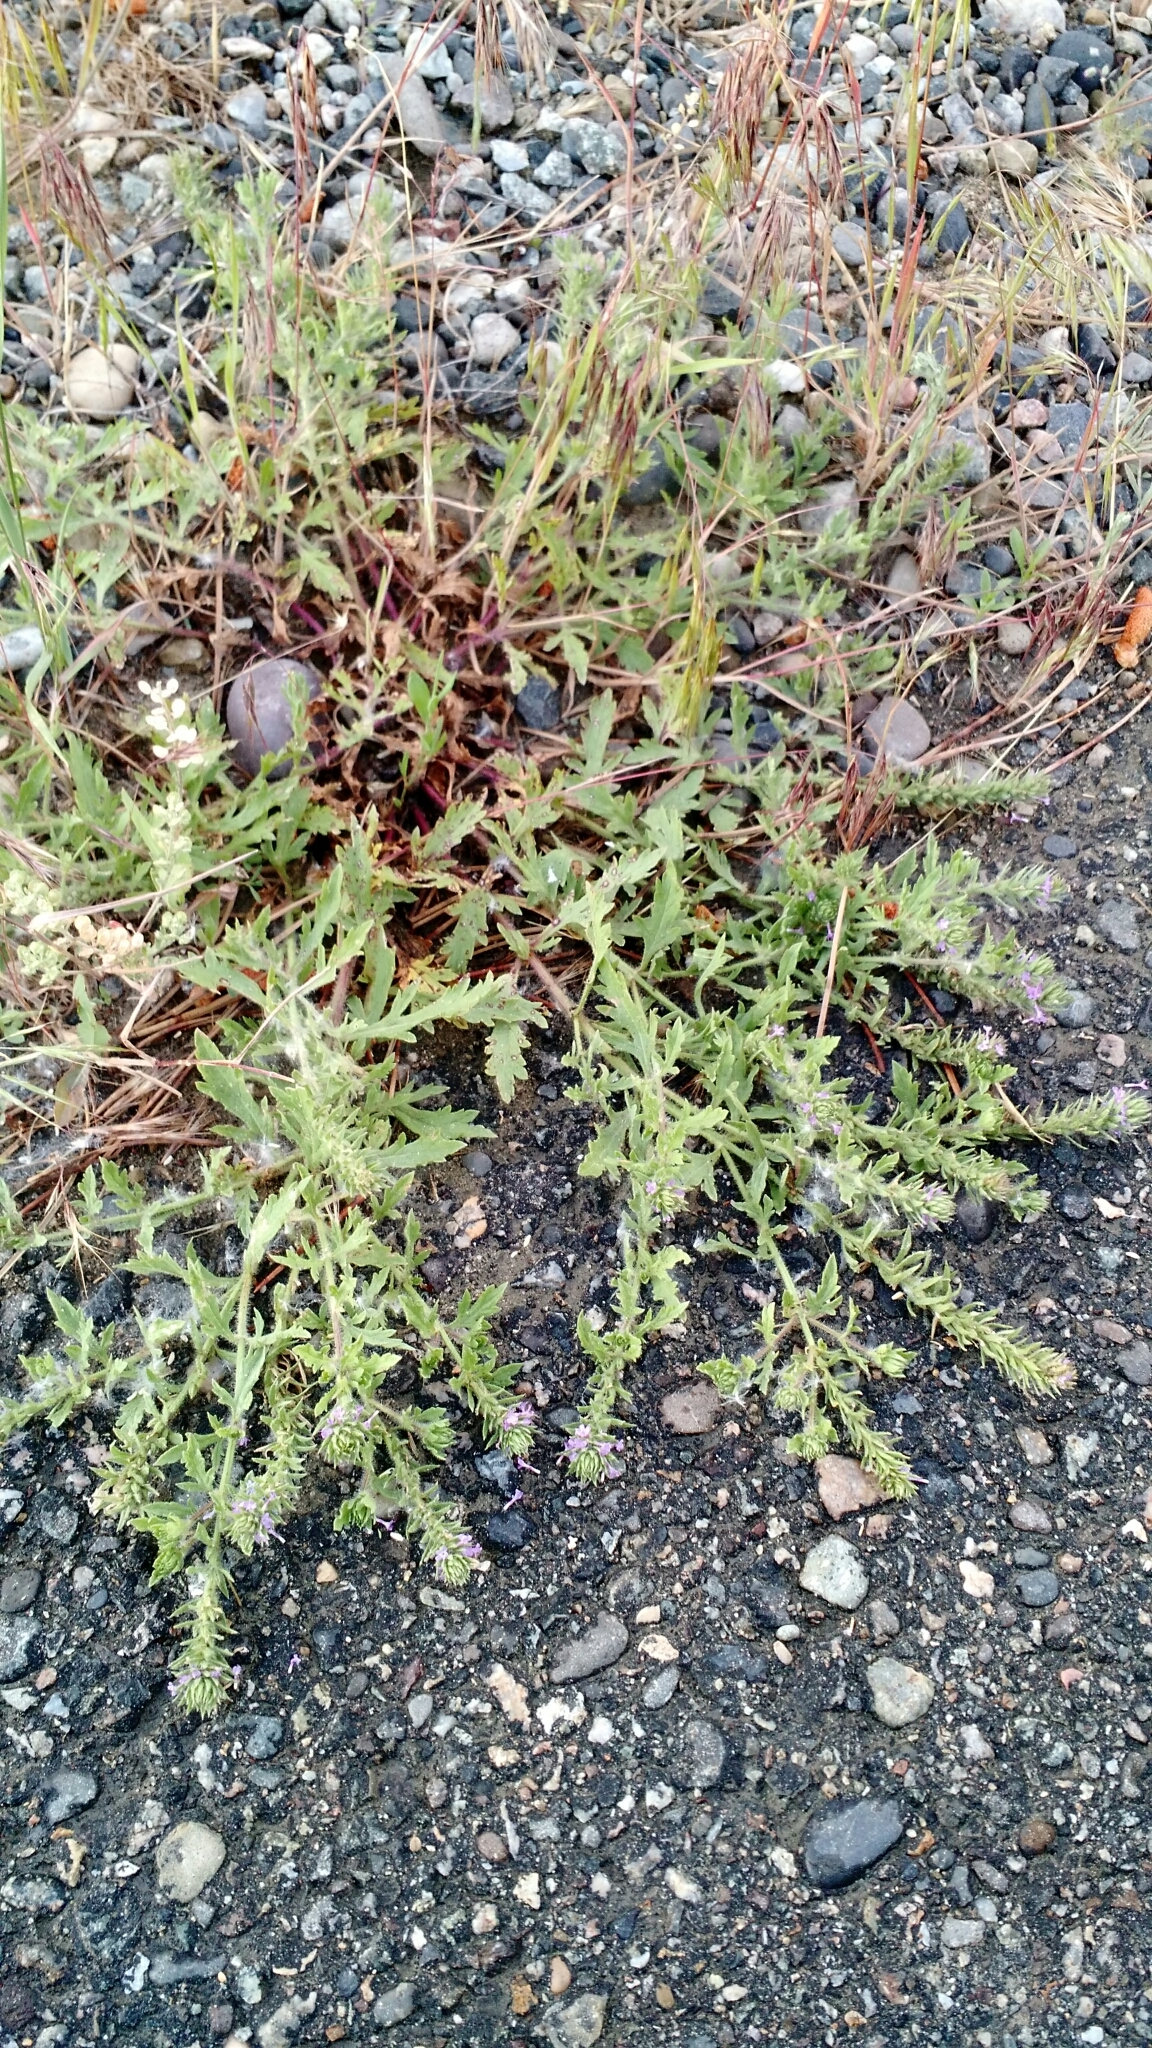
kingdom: Plantae
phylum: Tracheophyta
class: Magnoliopsida
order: Lamiales
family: Verbenaceae
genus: Verbena
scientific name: Verbena bracteata
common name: Bracted vervain
